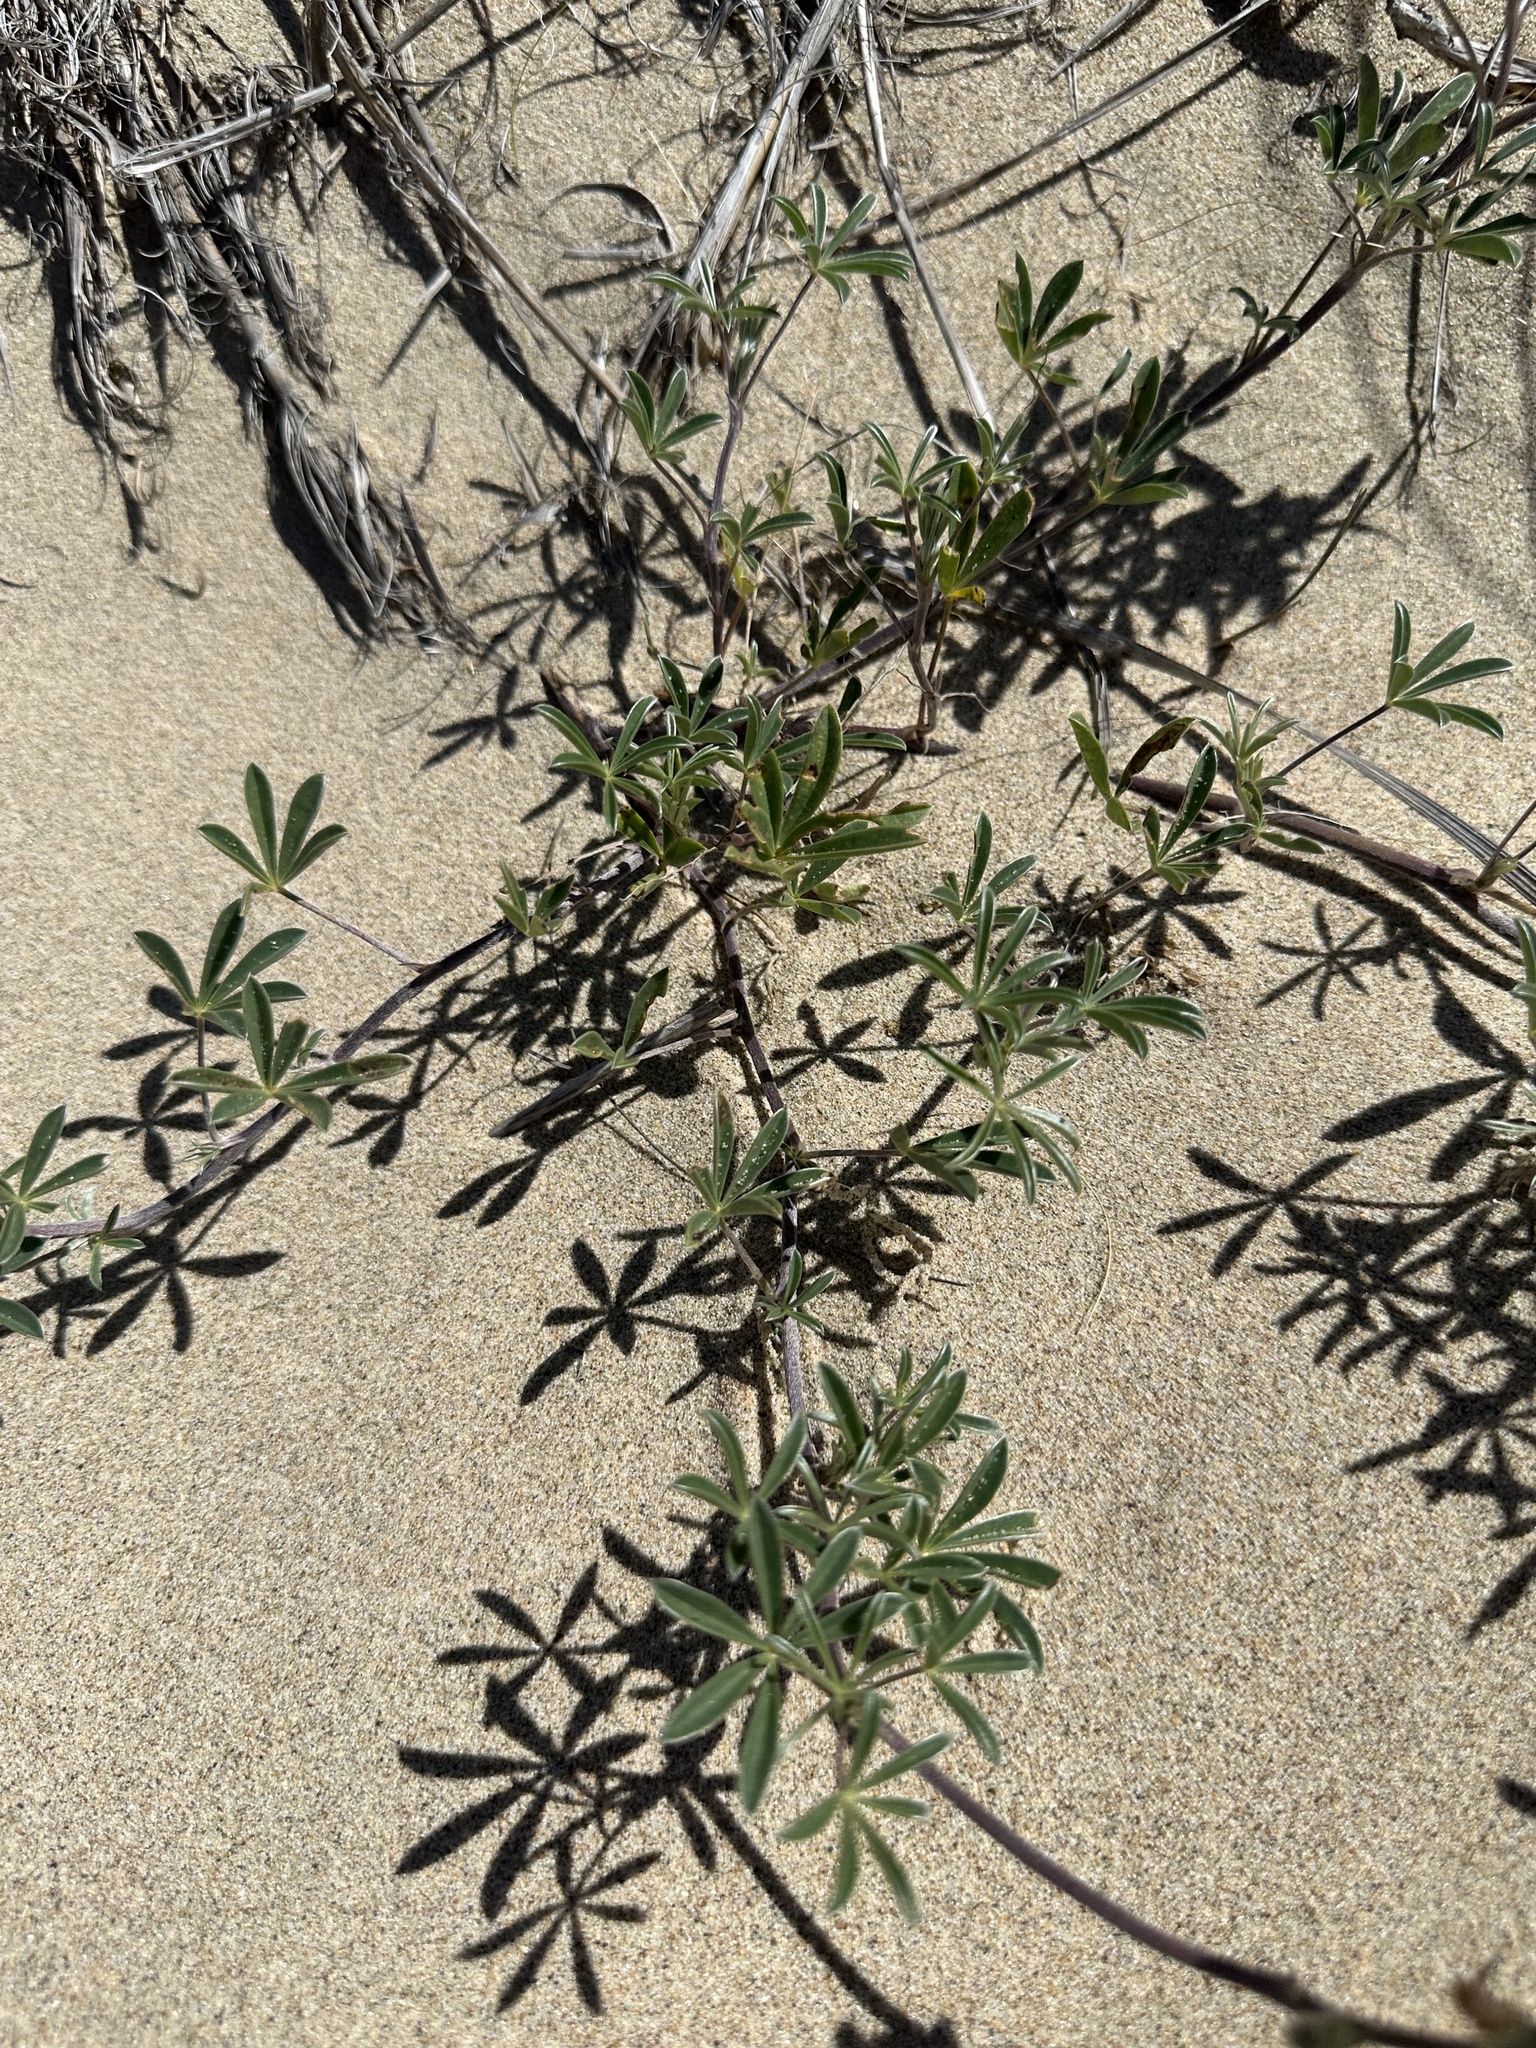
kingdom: Plantae
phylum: Tracheophyta
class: Magnoliopsida
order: Fabales
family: Fabaceae
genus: Lupinus
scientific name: Lupinus littoralis
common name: Seashore lupine
